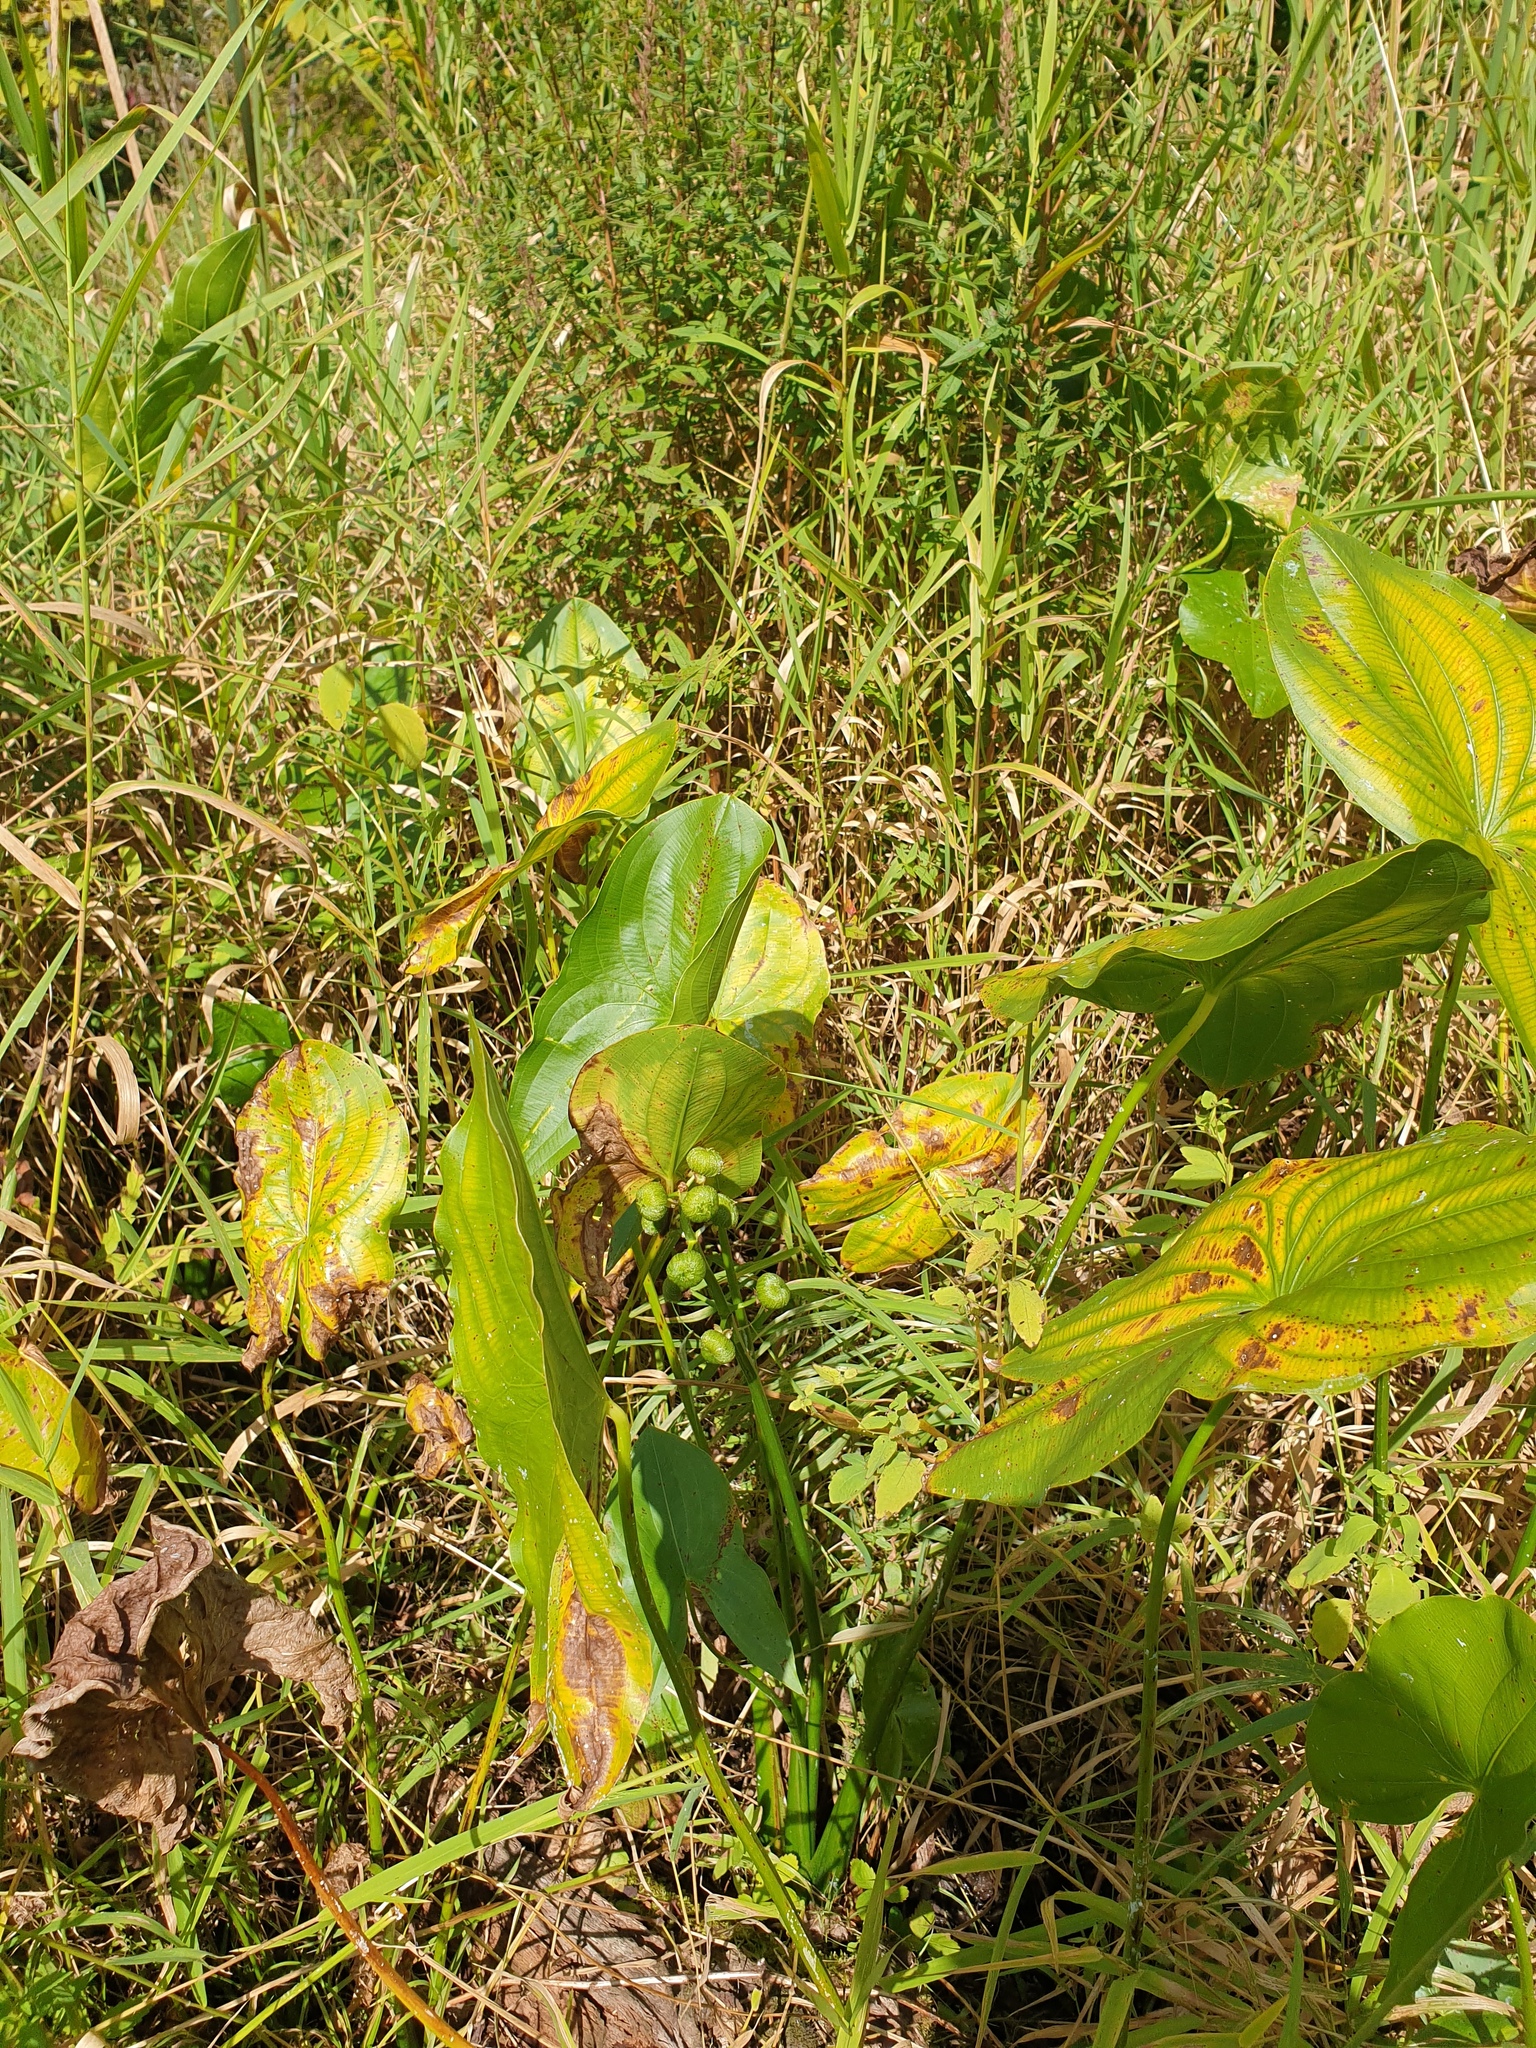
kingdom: Plantae
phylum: Tracheophyta
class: Liliopsida
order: Alismatales
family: Alismataceae
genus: Sagittaria
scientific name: Sagittaria latifolia
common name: Duck-potato
